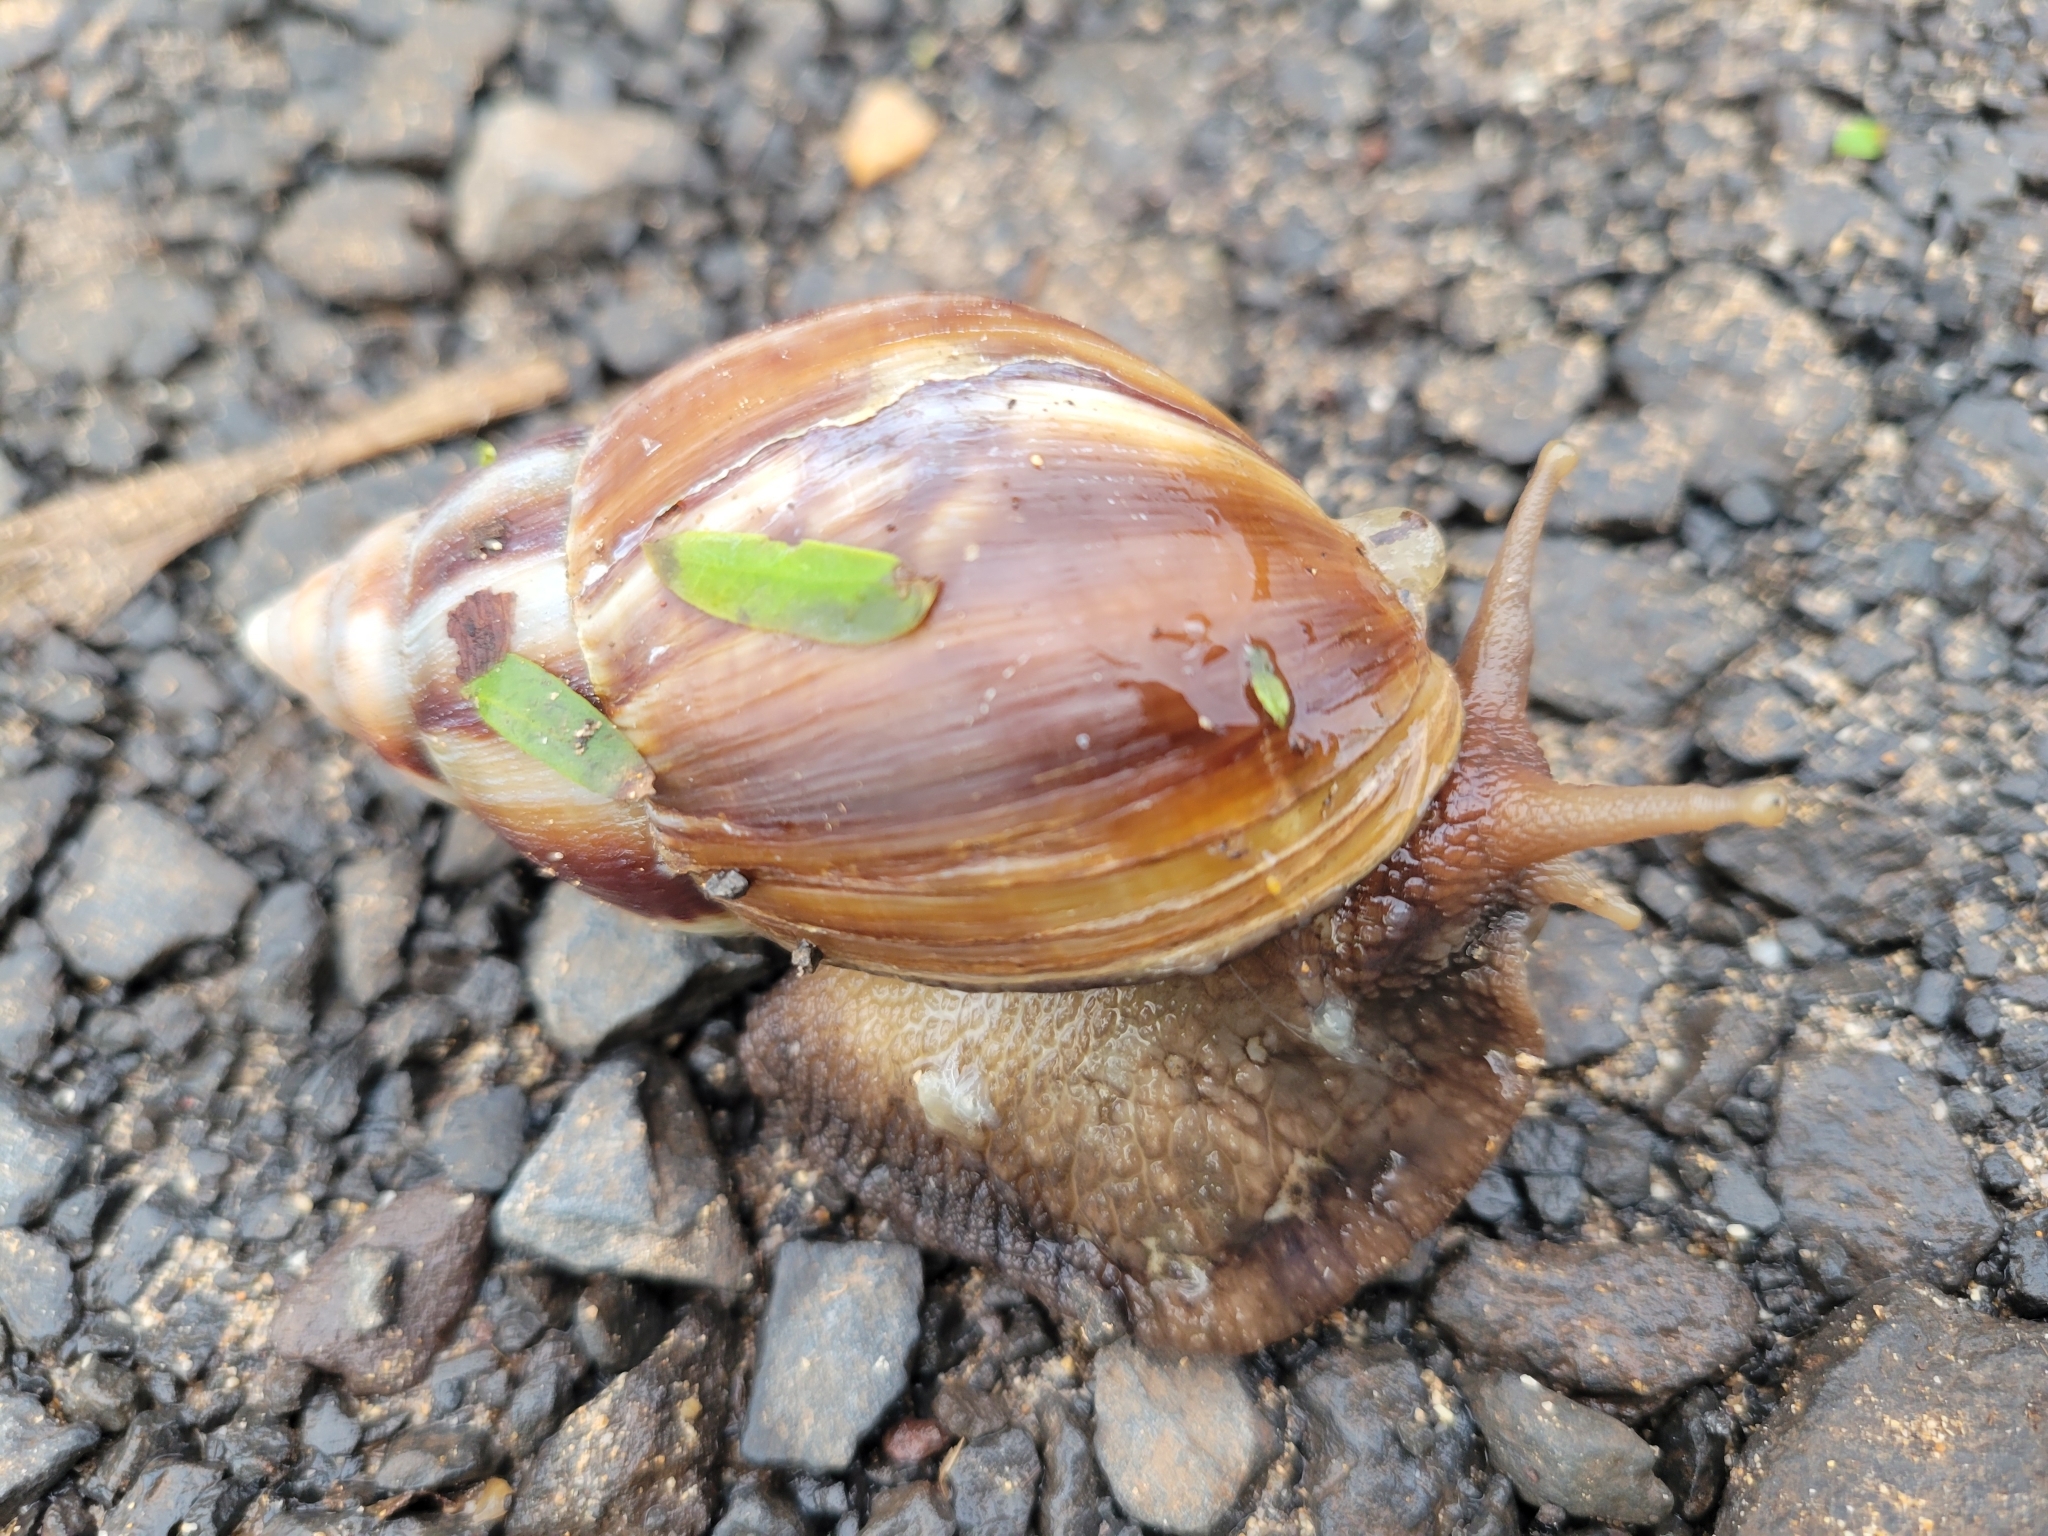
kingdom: Animalia
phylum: Mollusca
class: Gastropoda
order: Stylommatophora
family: Achatinidae
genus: Lissachatina
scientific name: Lissachatina fulica
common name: Giant african snail
